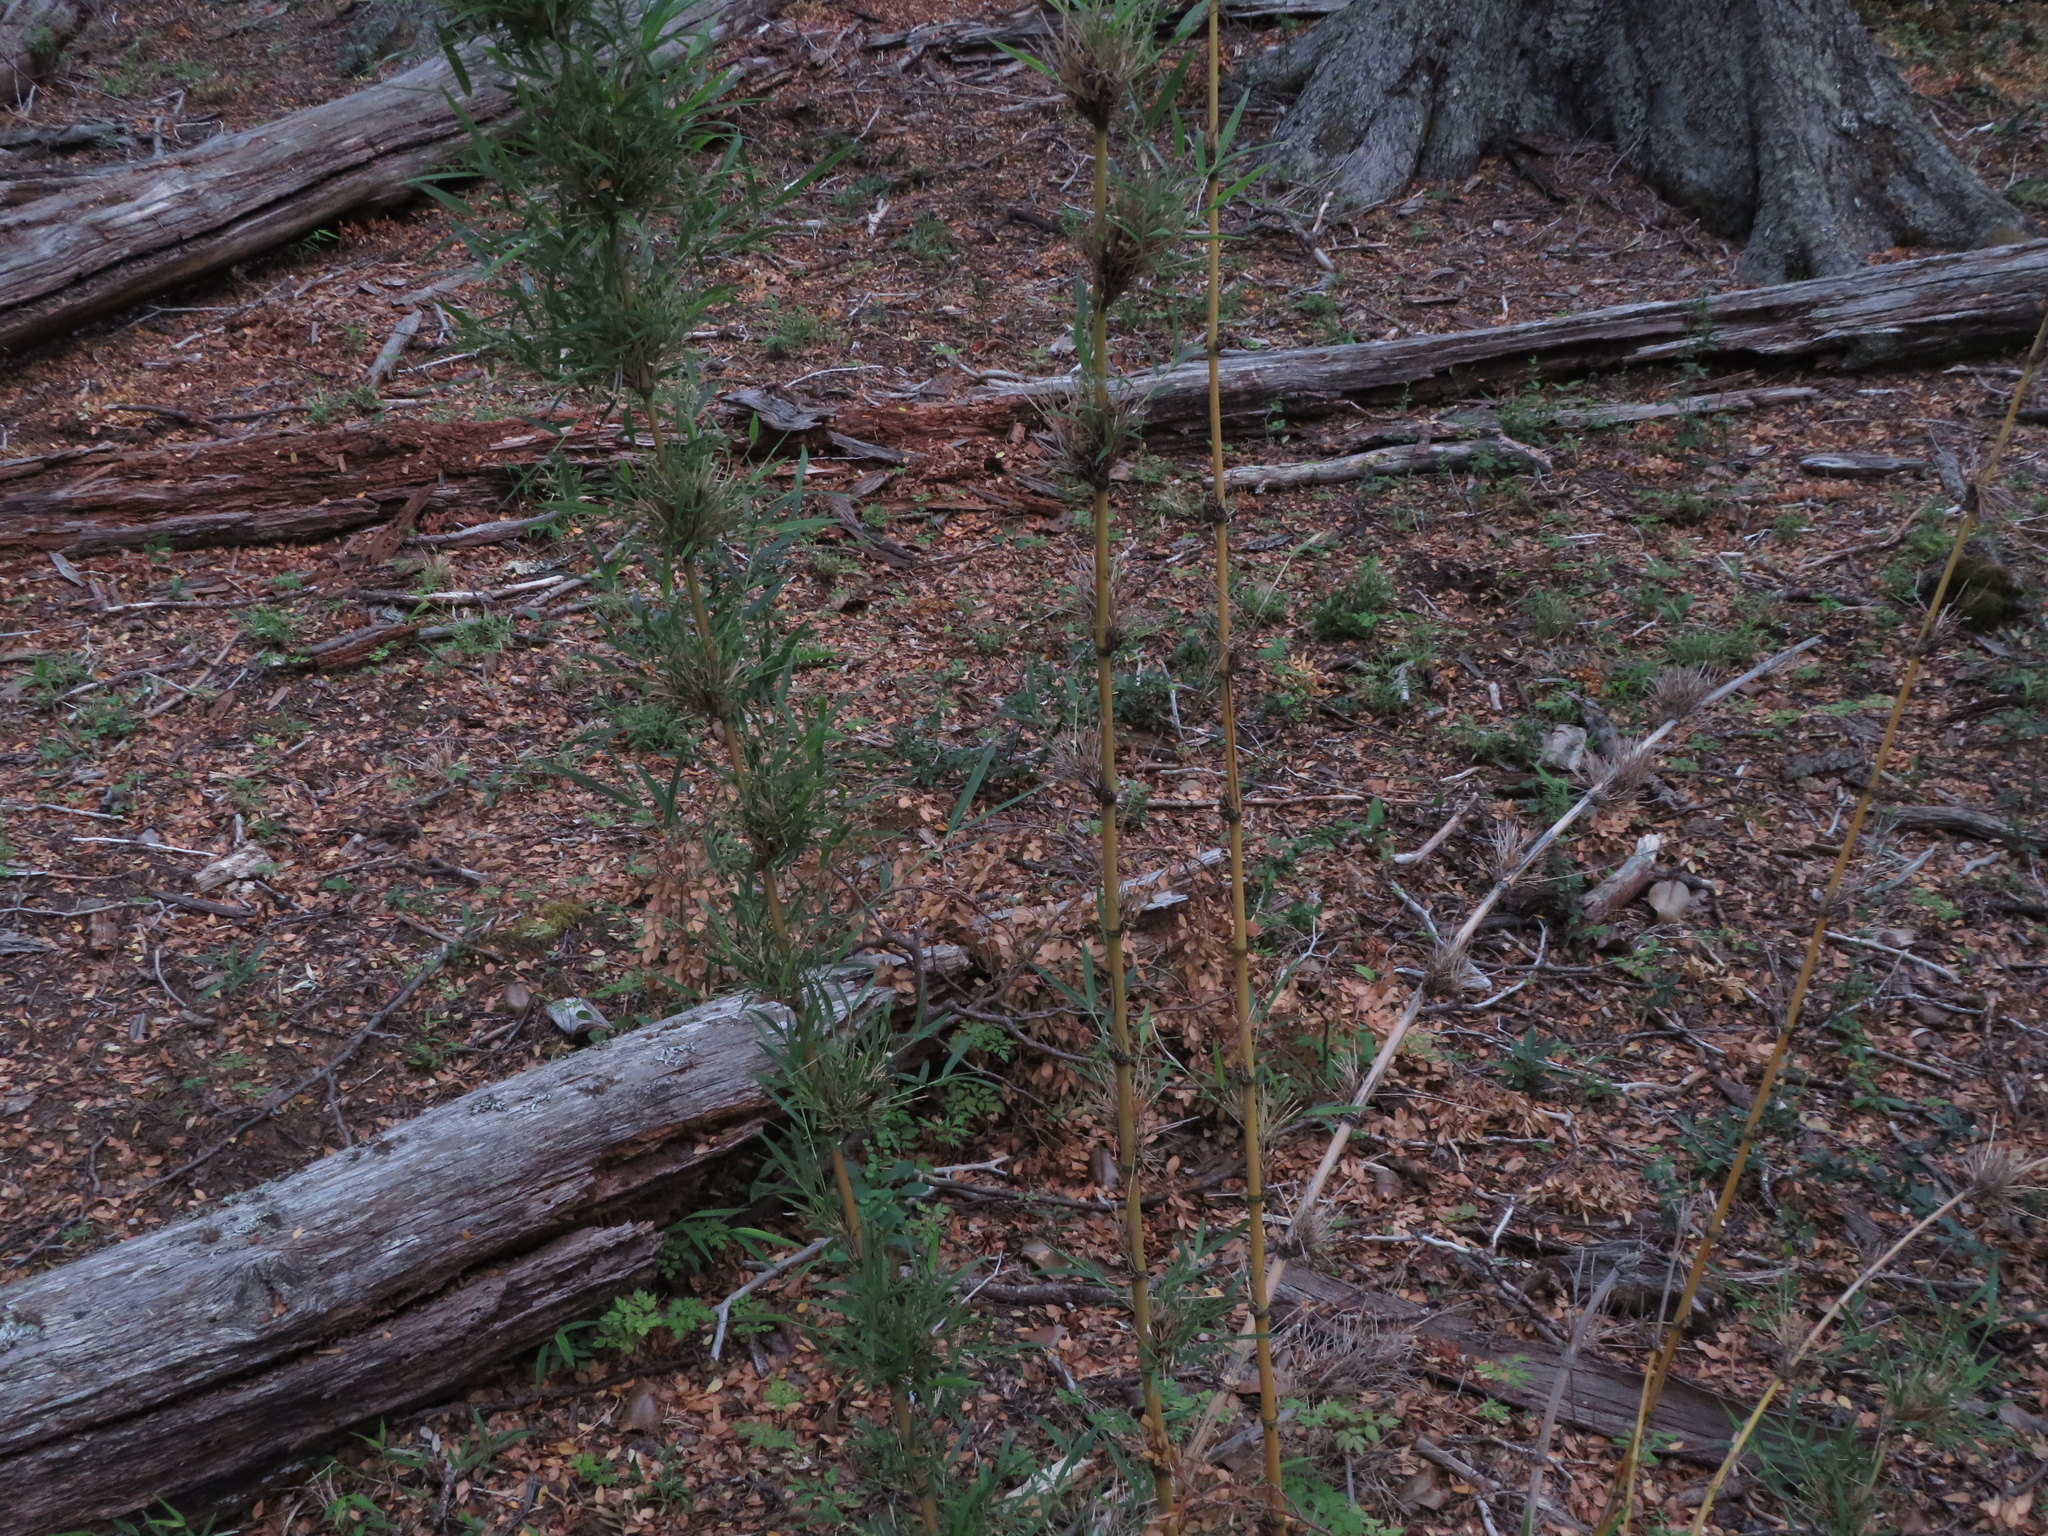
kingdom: Plantae
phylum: Tracheophyta
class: Liliopsida
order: Poales
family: Poaceae
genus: Chusquea
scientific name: Chusquea culeou
